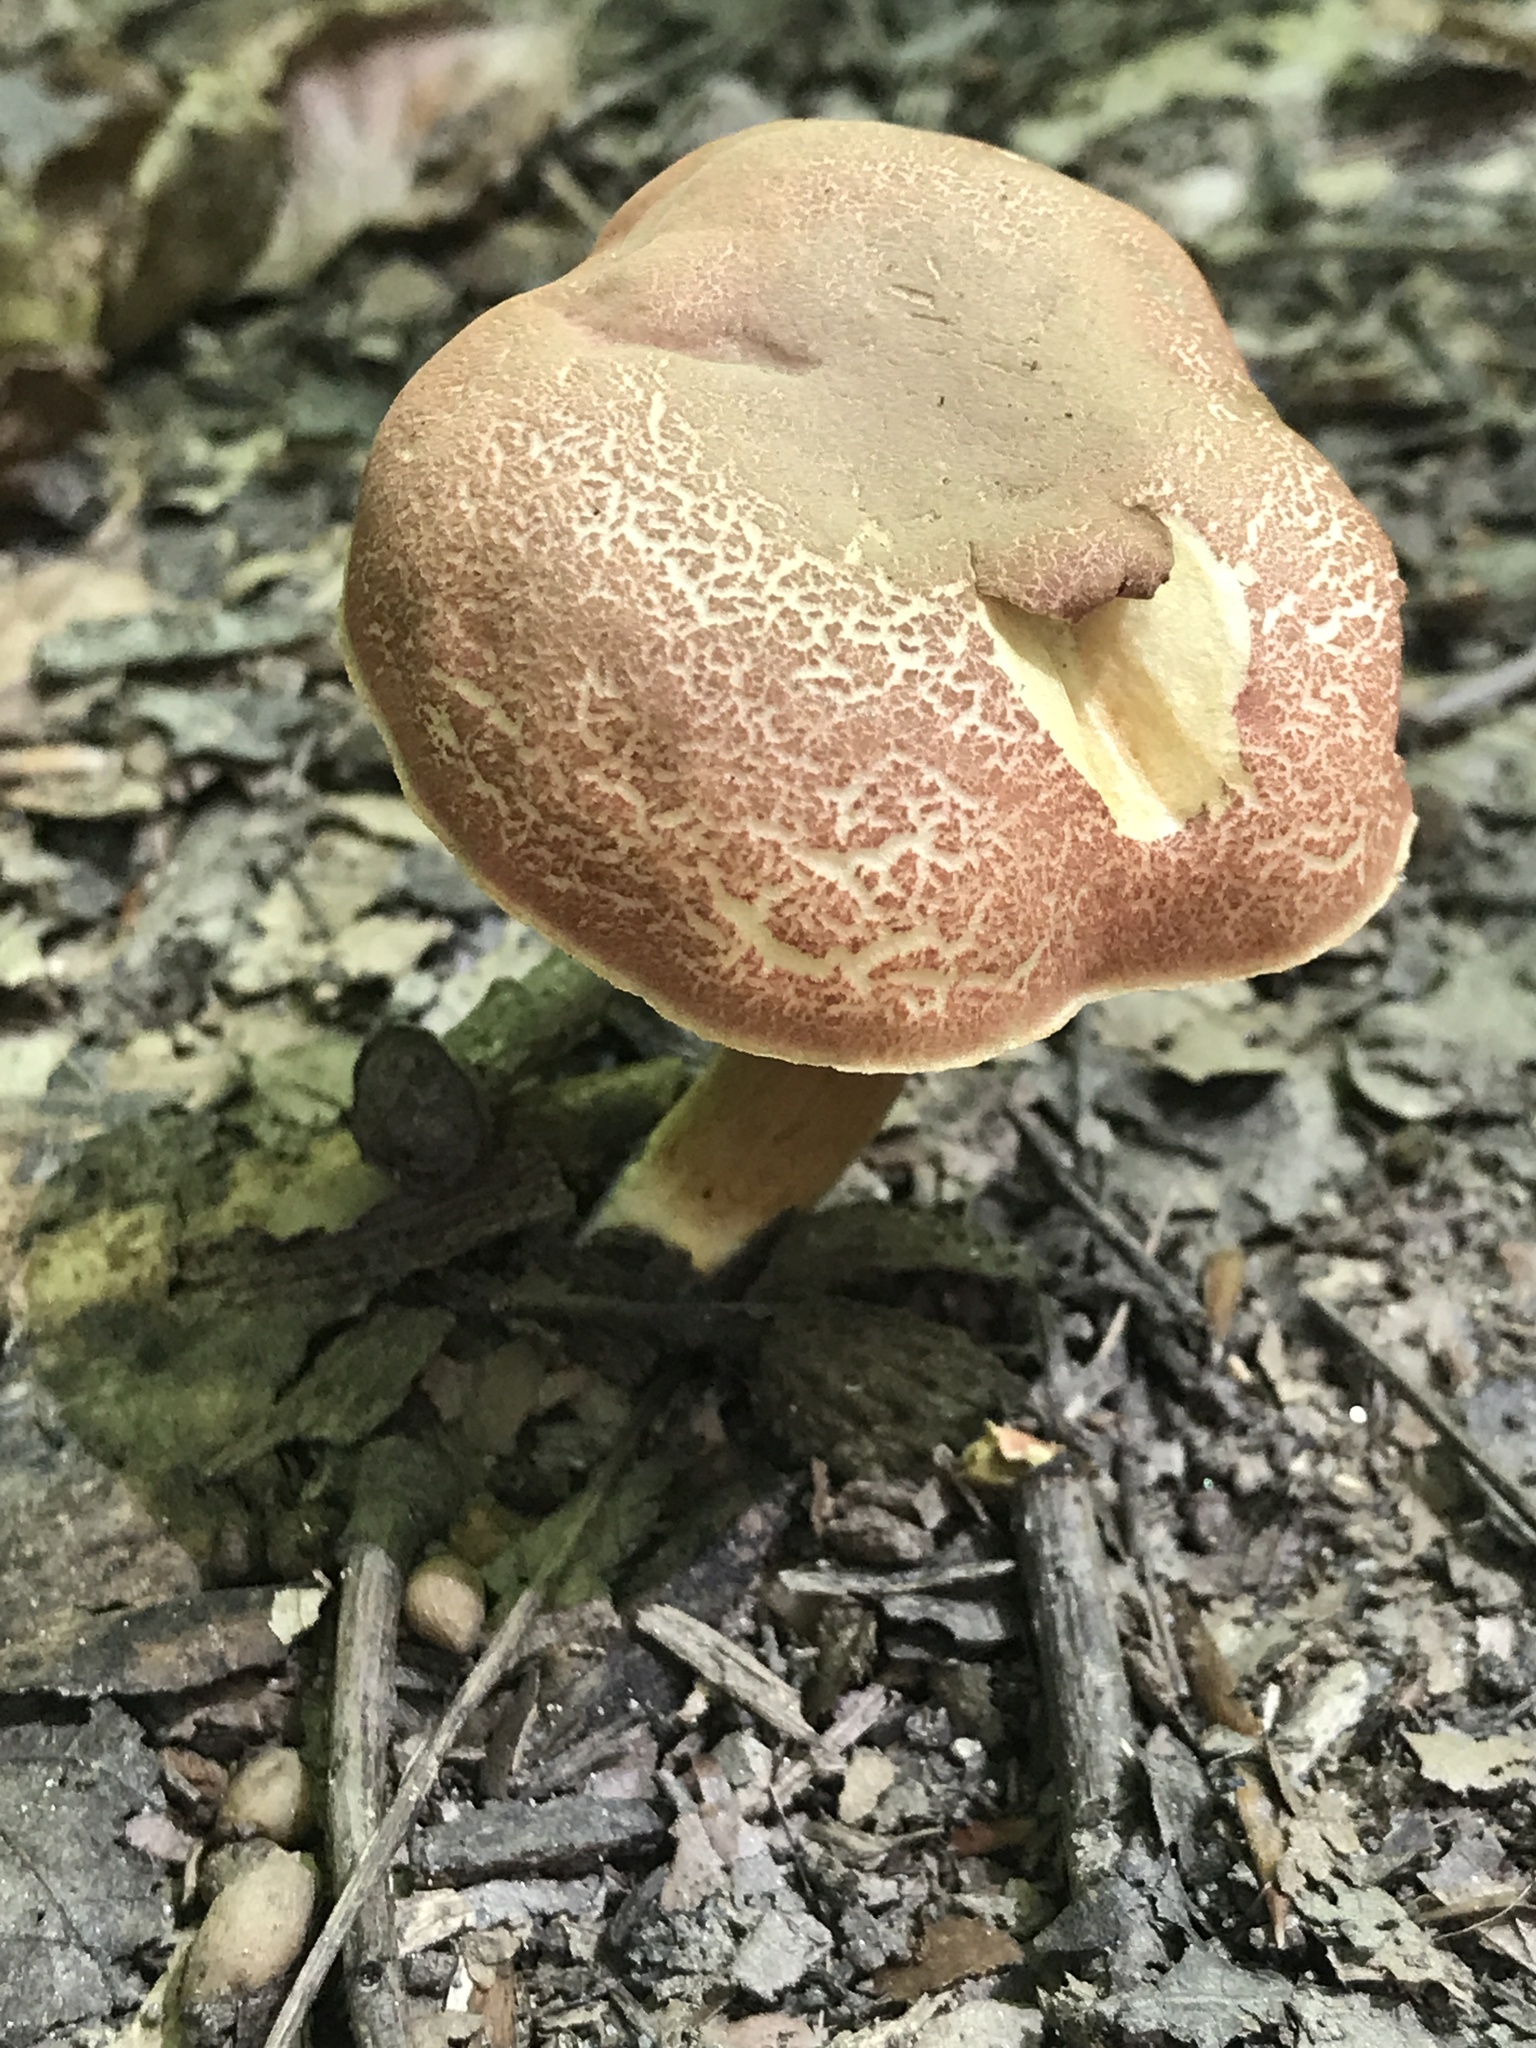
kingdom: Fungi
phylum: Basidiomycota
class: Agaricomycetes
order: Boletales
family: Boletaceae
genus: Xerocomellus
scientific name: Xerocomellus chrysenteron
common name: Red-cracking bolete
